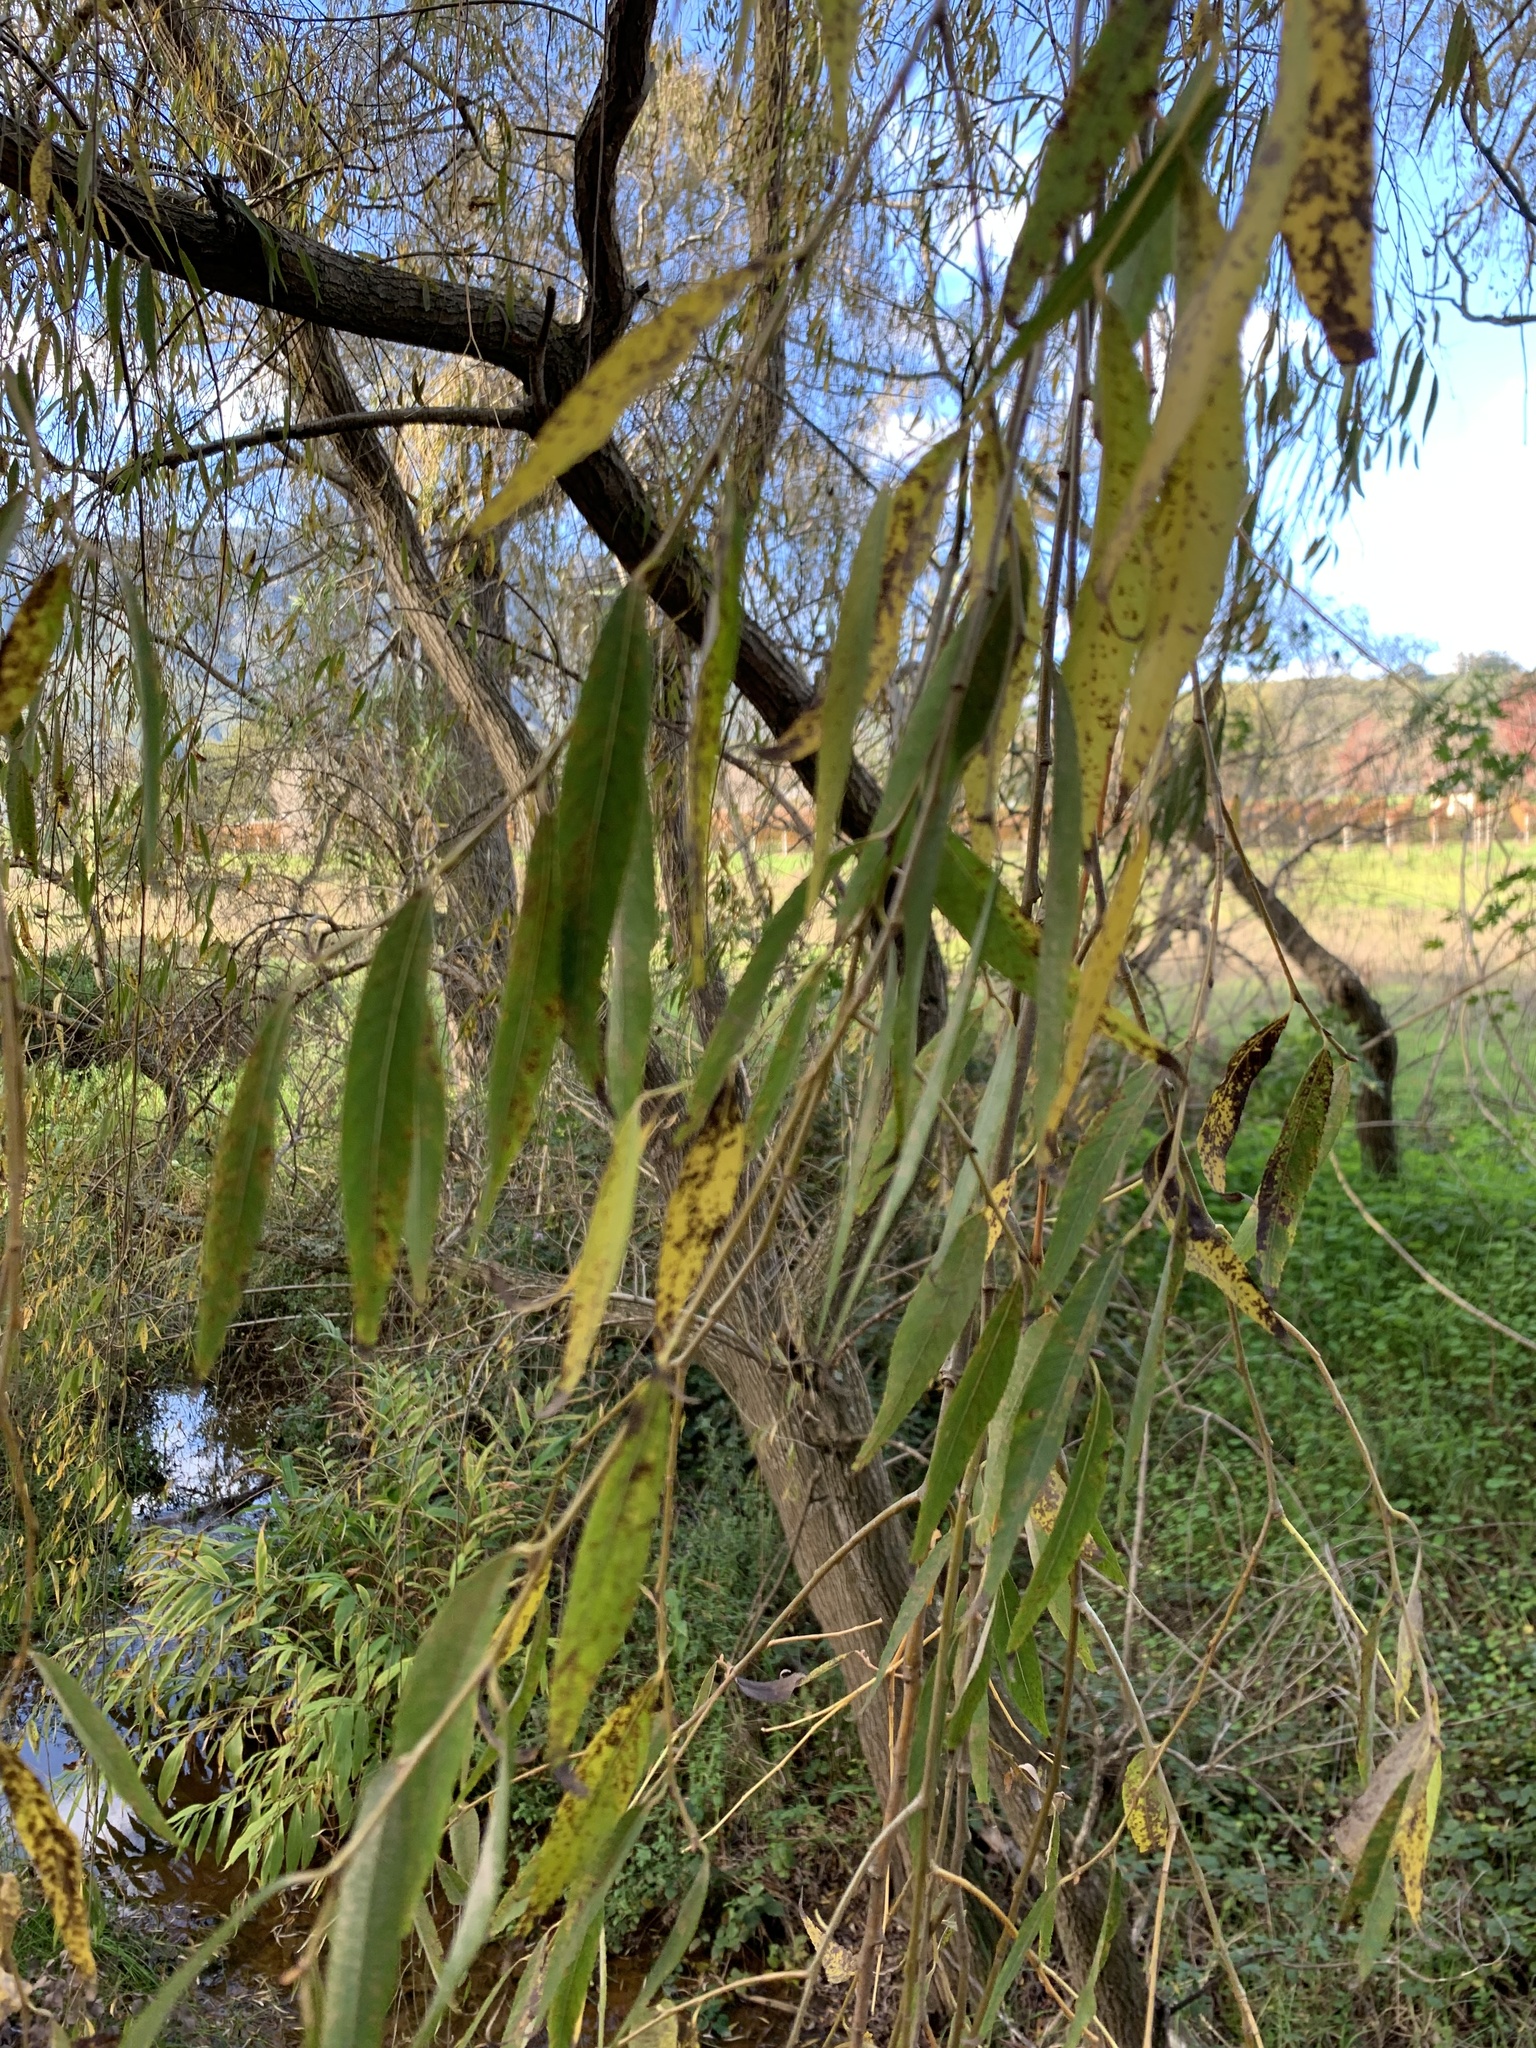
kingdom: Plantae
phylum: Tracheophyta
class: Magnoliopsida
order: Malpighiales
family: Salicaceae
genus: Salix
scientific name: Salix babylonica
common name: Weeping willow
